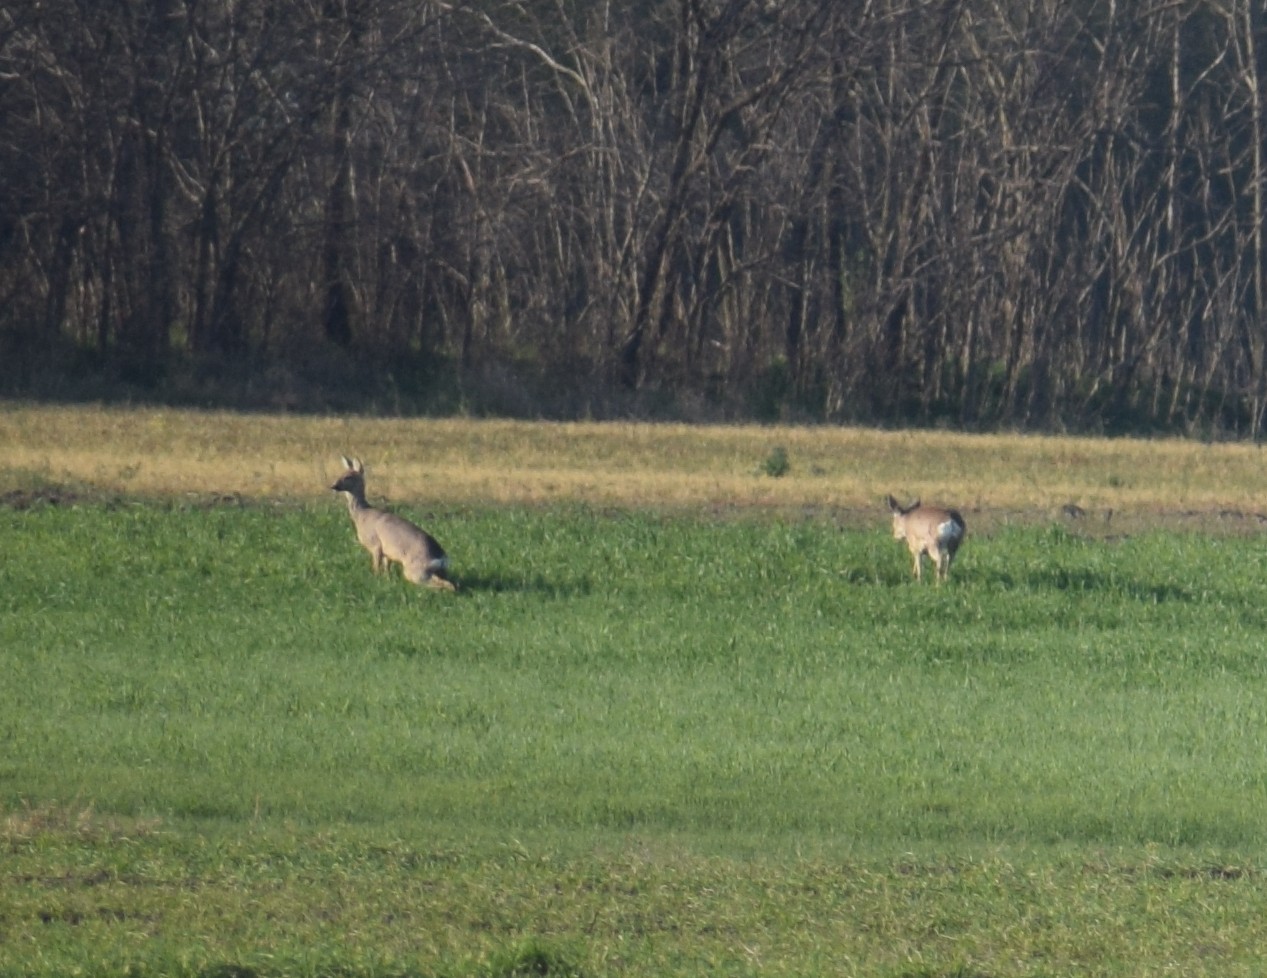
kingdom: Animalia
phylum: Chordata
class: Mammalia
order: Artiodactyla
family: Cervidae
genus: Capreolus
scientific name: Capreolus capreolus
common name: Western roe deer
